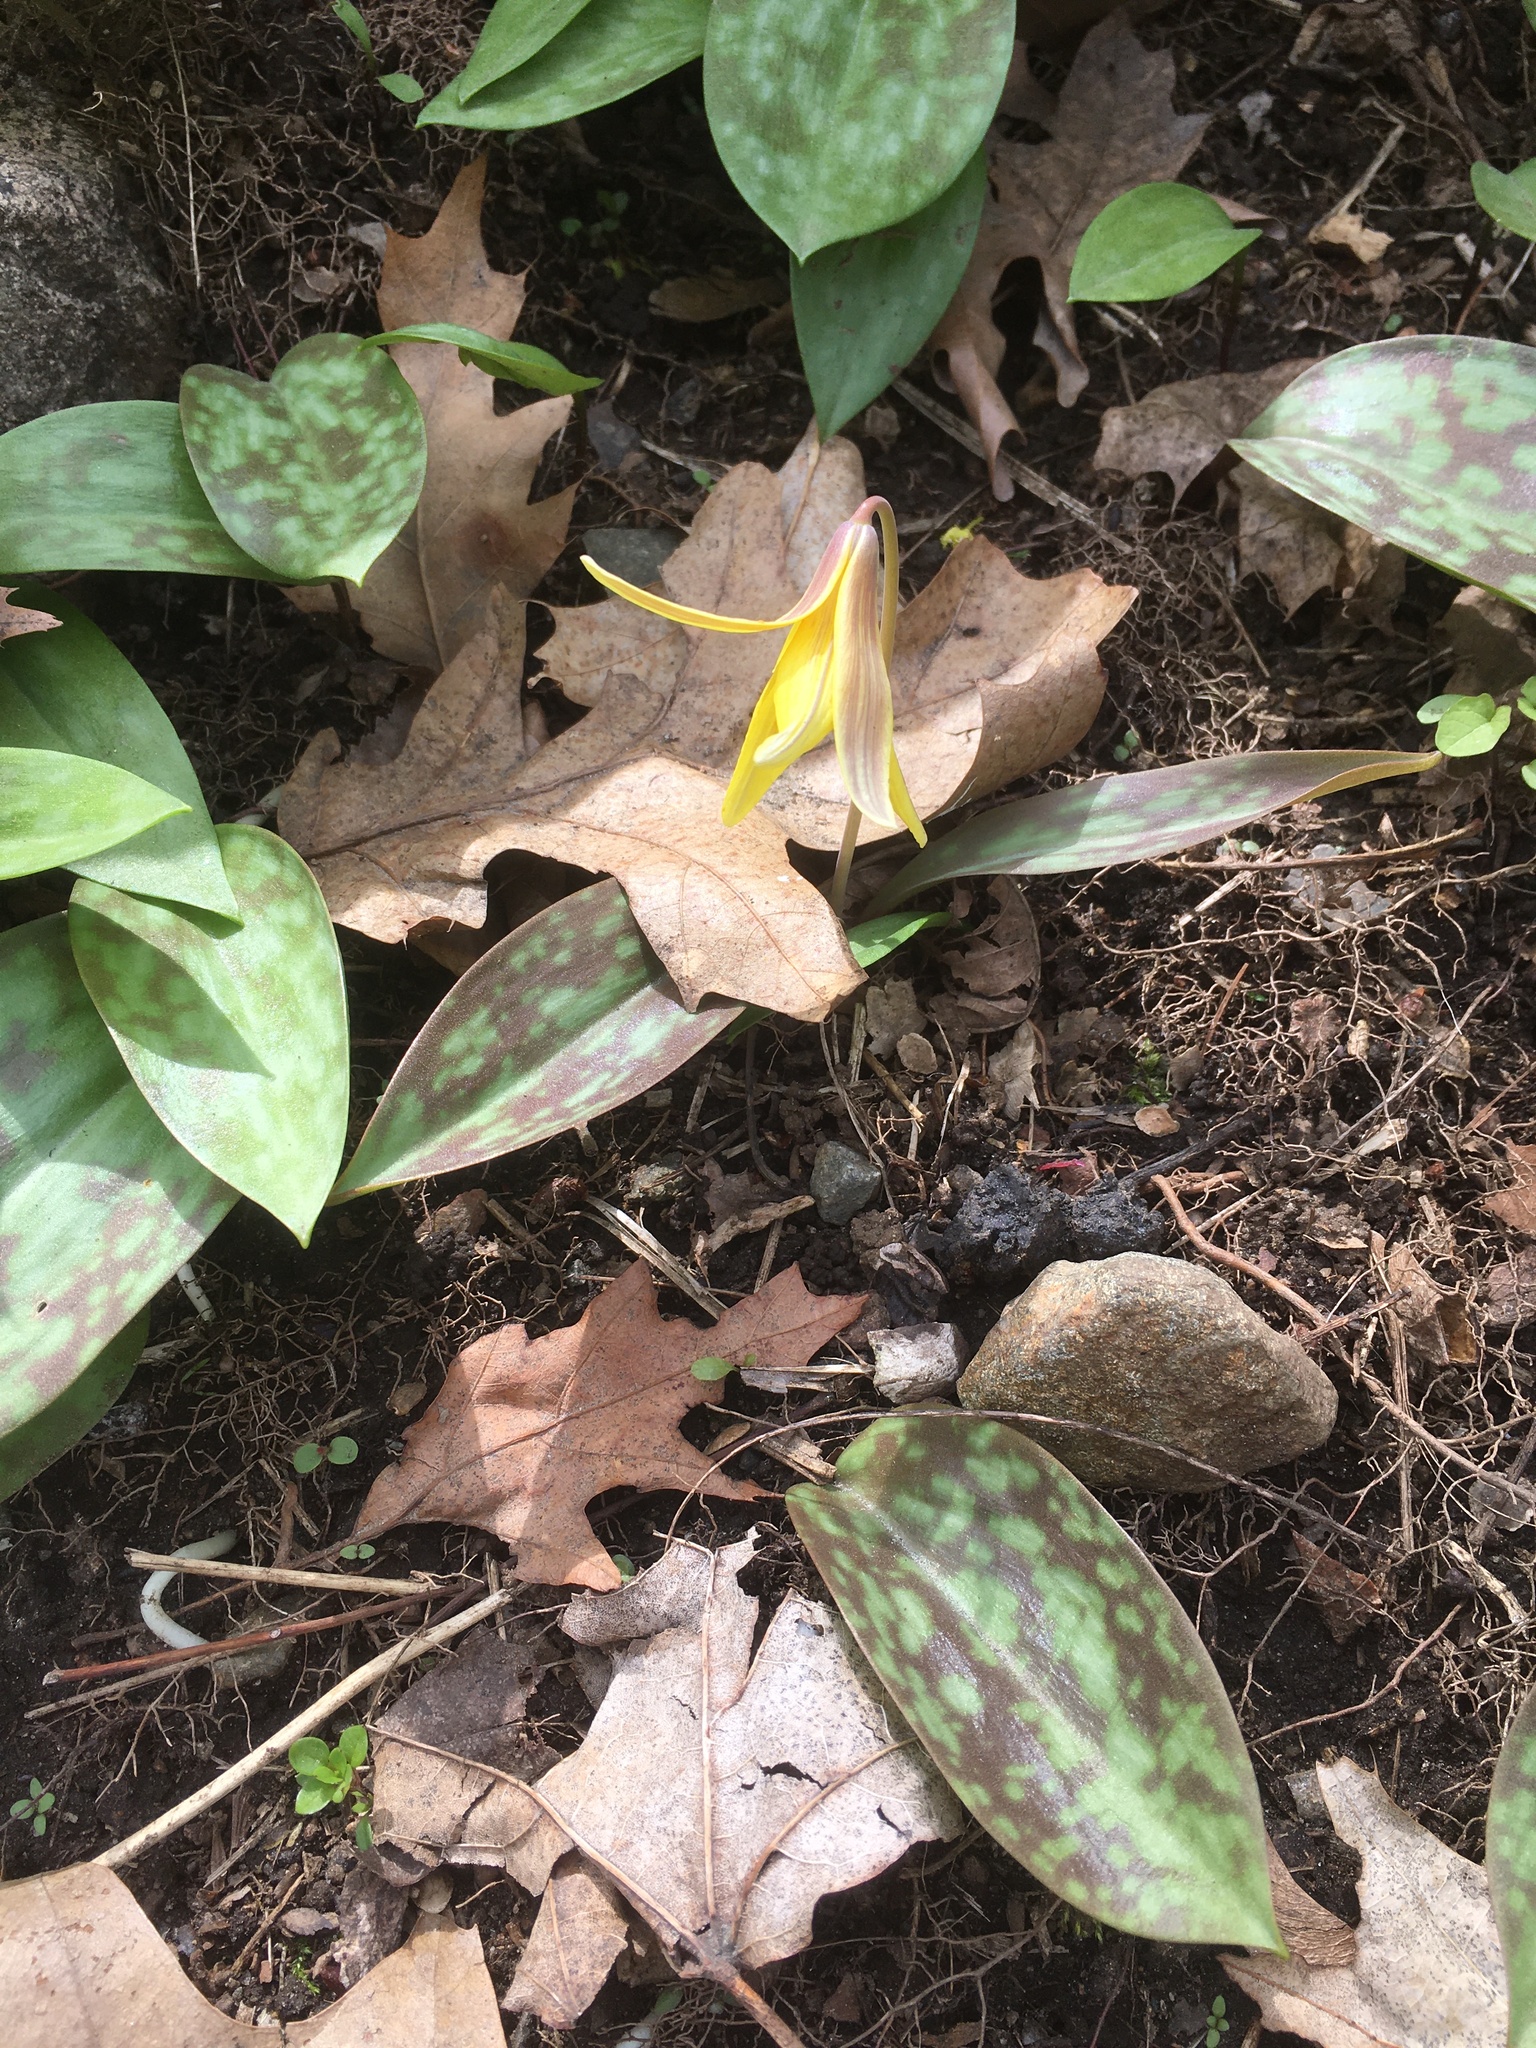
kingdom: Plantae
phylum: Tracheophyta
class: Liliopsida
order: Liliales
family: Liliaceae
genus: Erythronium
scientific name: Erythronium americanum
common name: Yellow adder's-tongue
